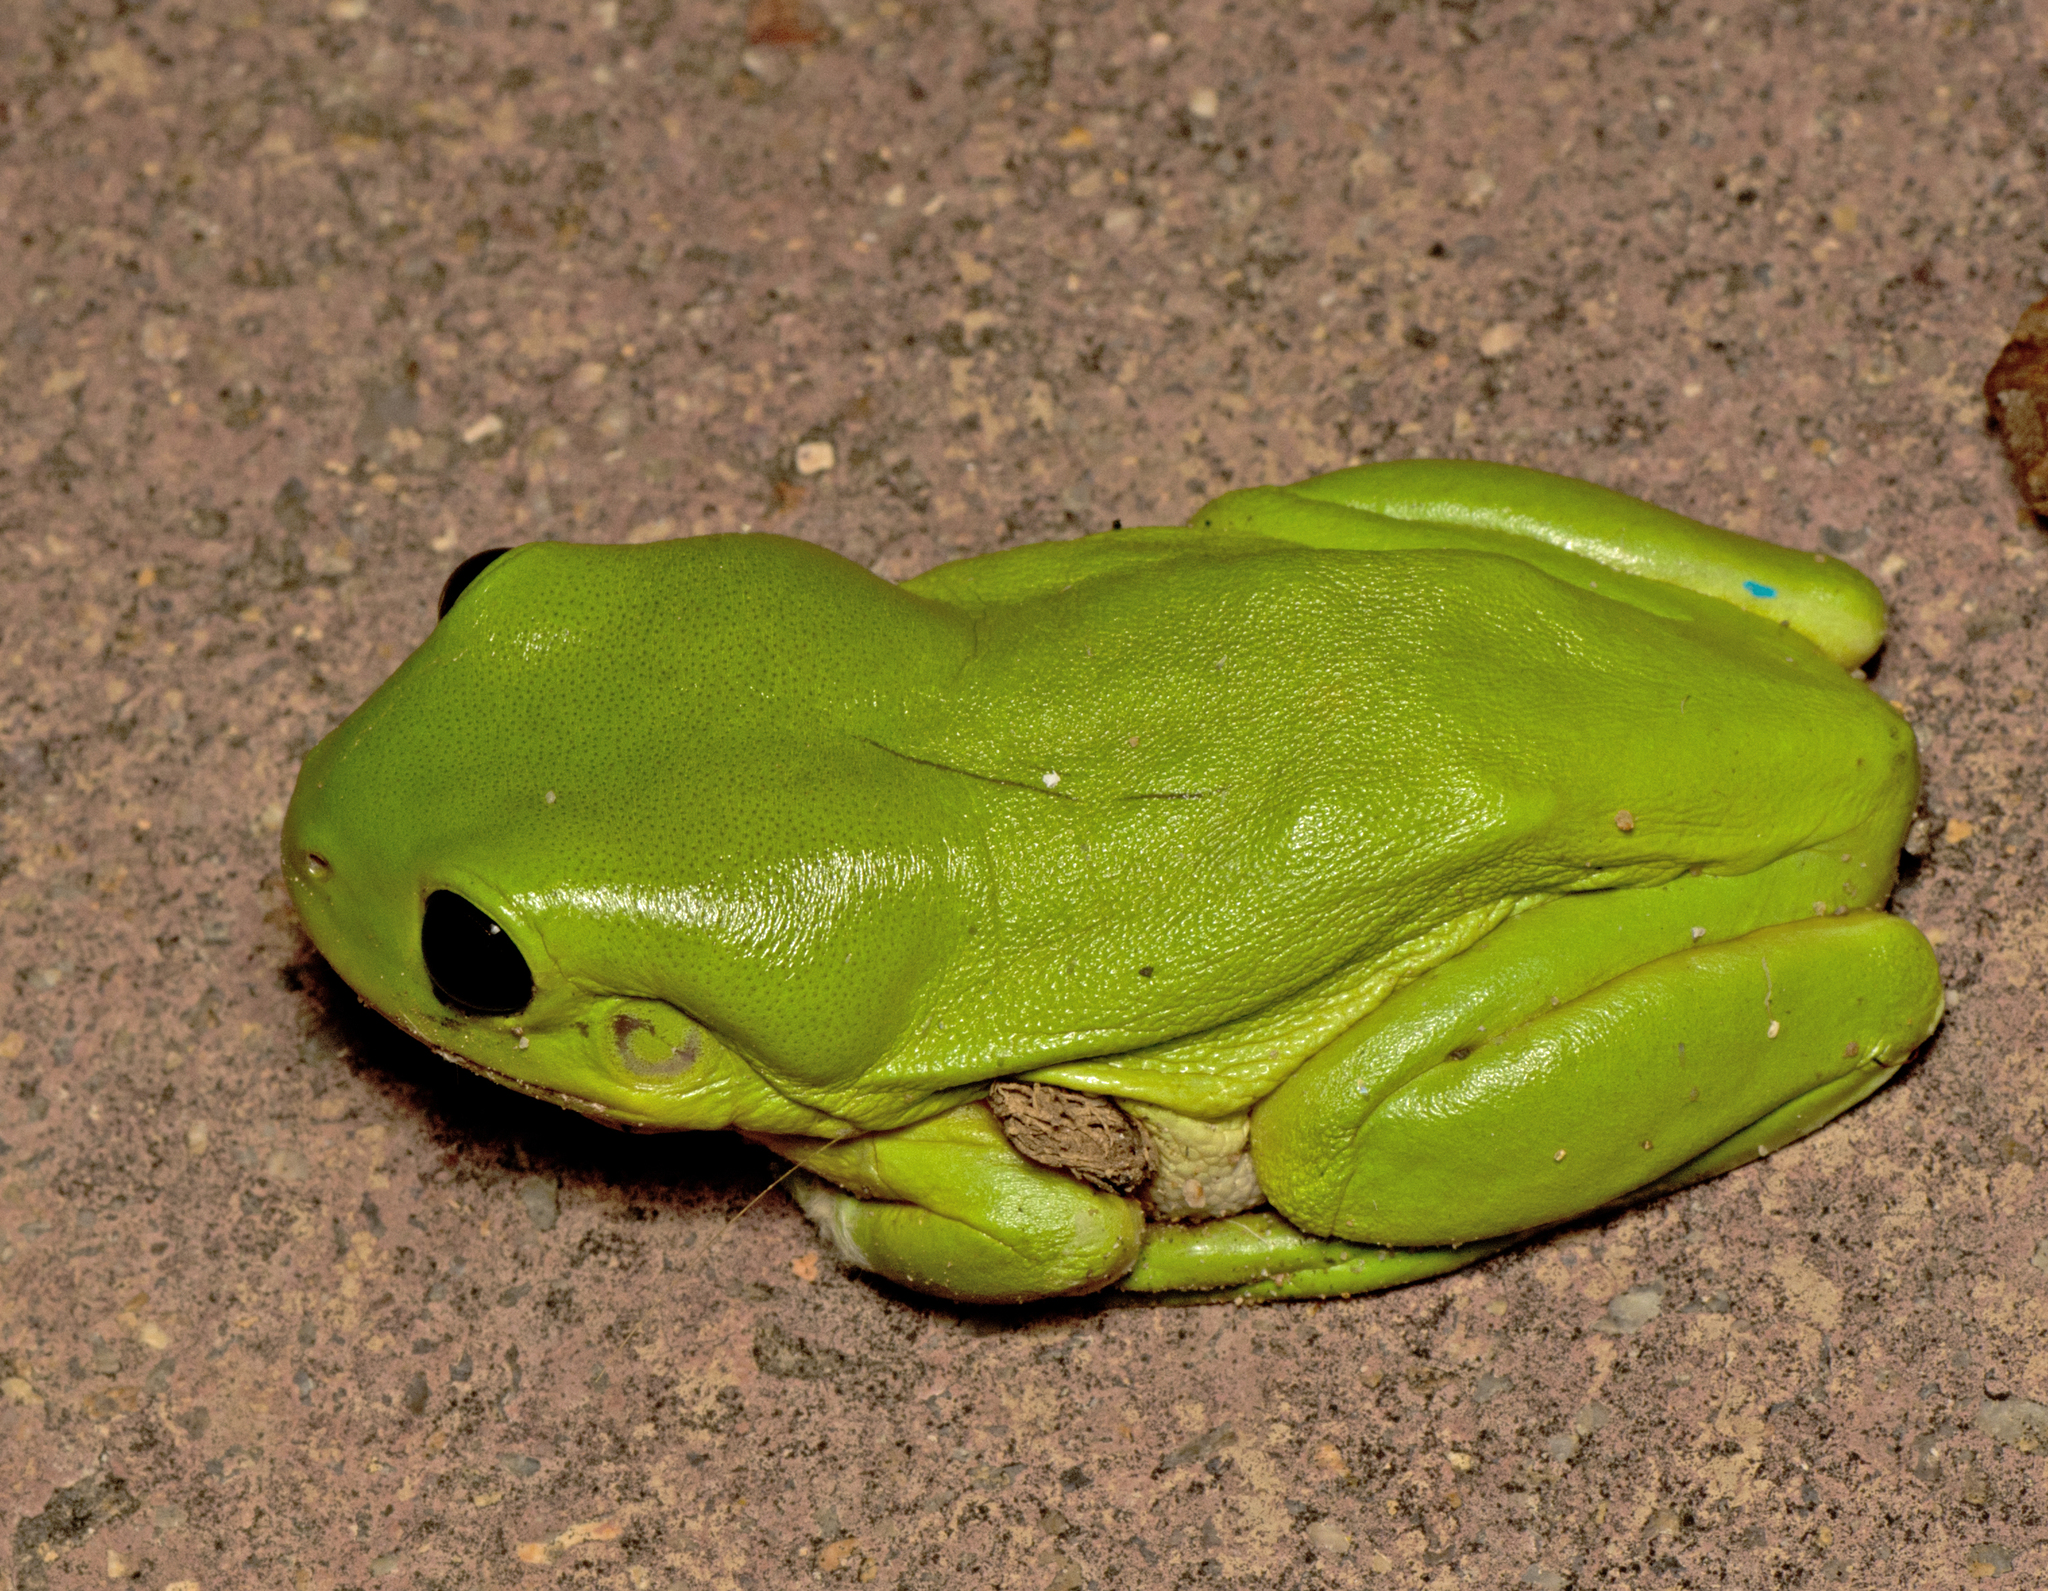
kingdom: Animalia
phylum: Chordata
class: Amphibia
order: Anura
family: Pelodryadidae
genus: Ranoidea
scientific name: Ranoidea caerulea
